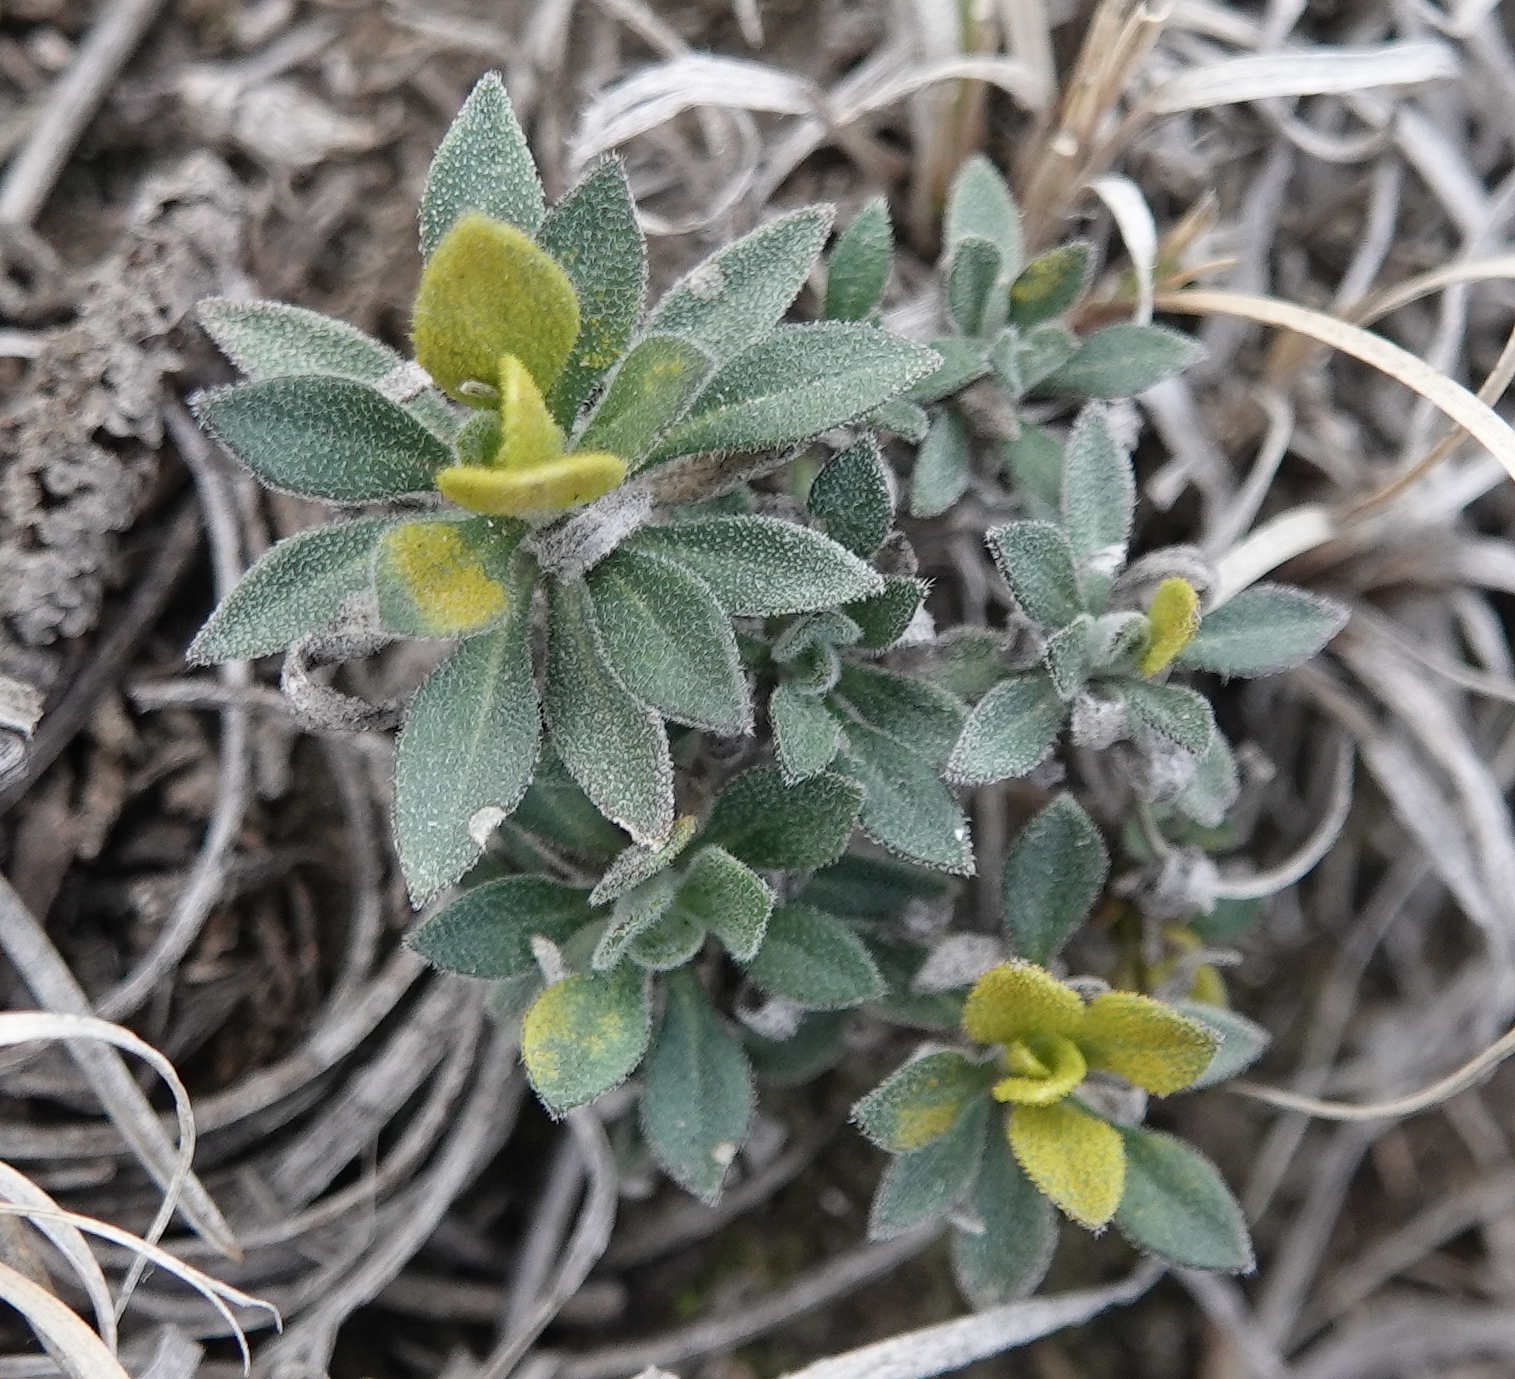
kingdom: Fungi
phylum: Basidiomycota
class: Pucciniomycetes
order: Pucciniales
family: Pucciniaceae
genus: Puccinia
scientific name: Puccinia monoica
